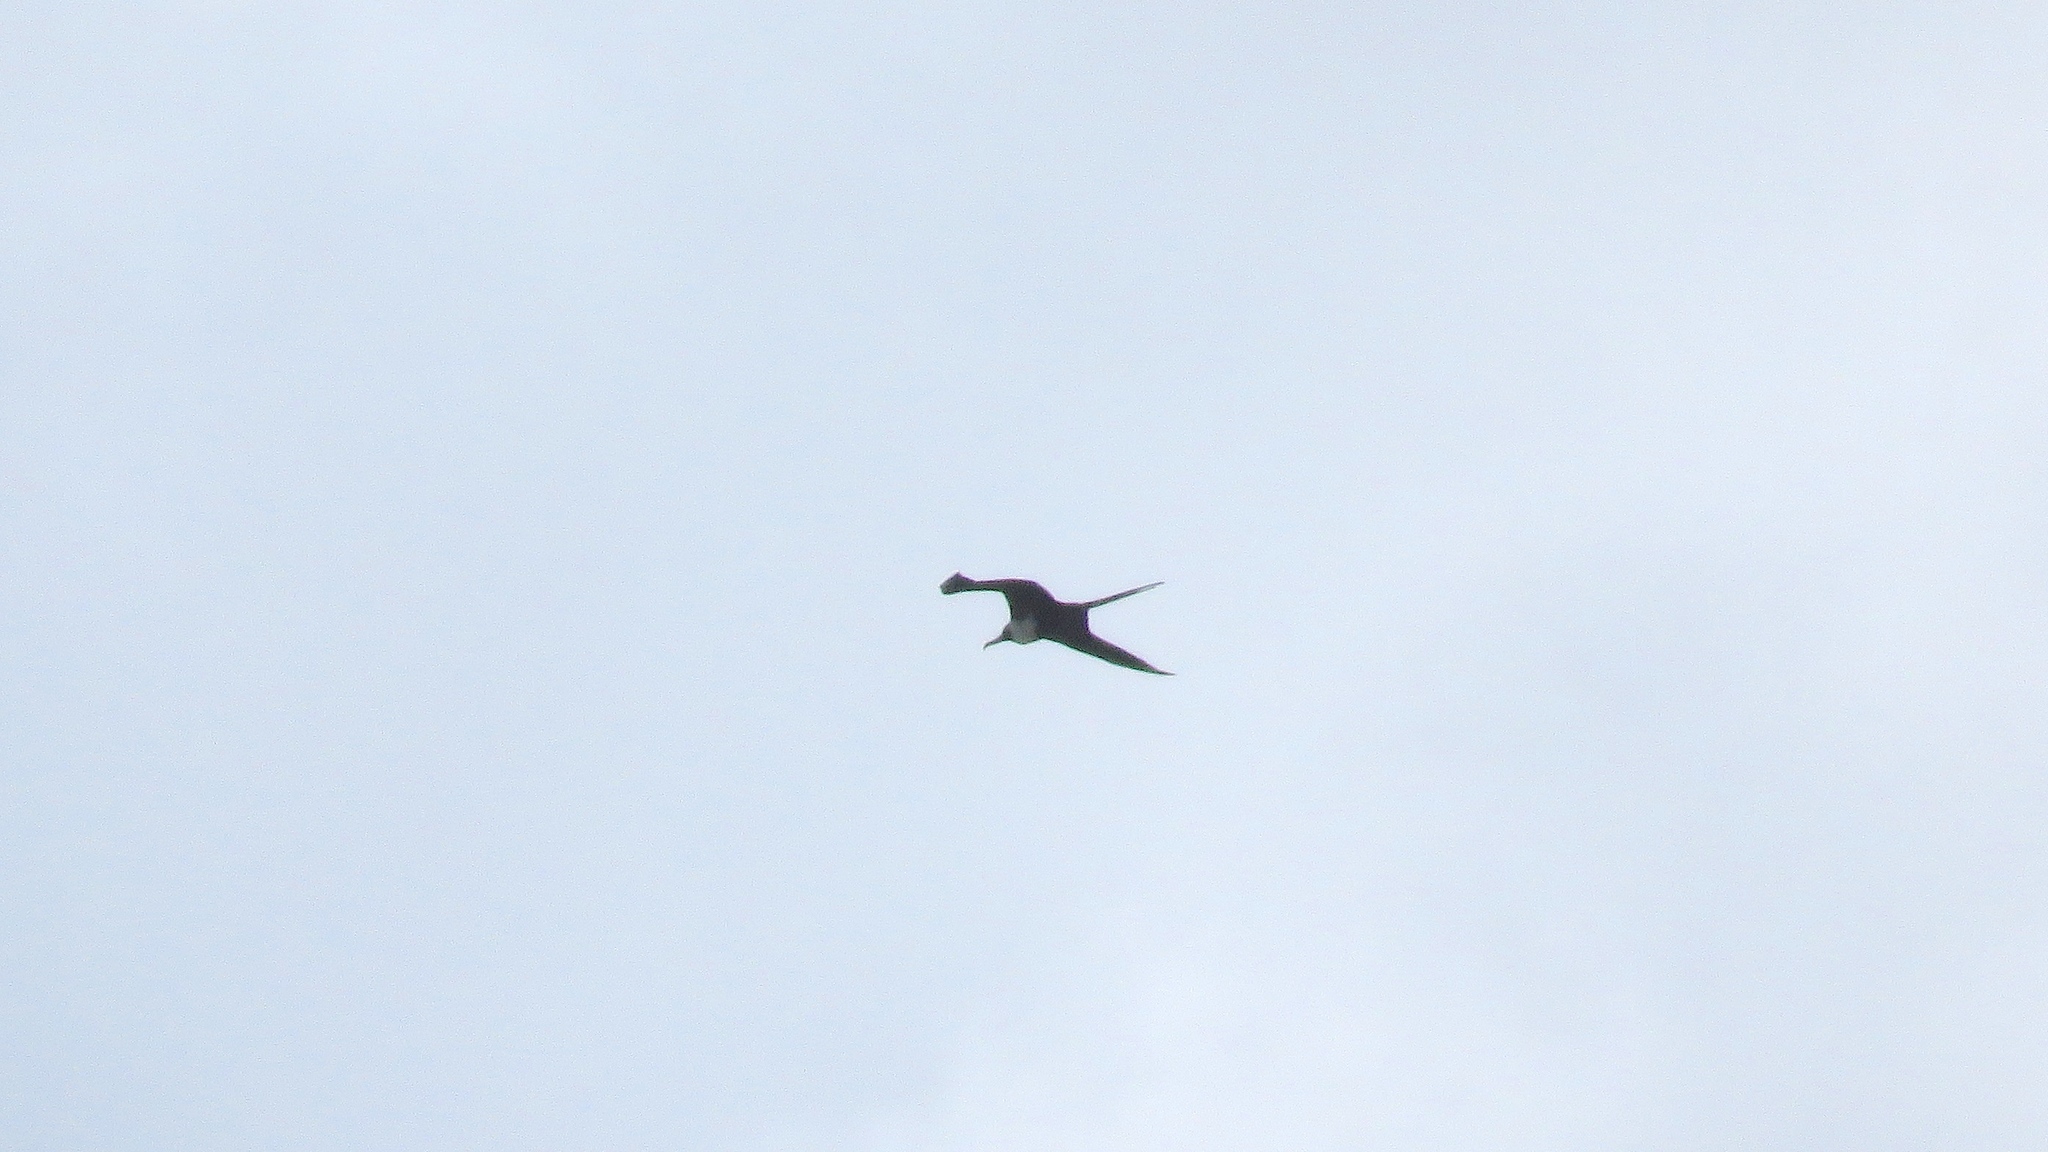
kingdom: Animalia
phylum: Chordata
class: Aves
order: Suliformes
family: Fregatidae
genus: Fregata
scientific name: Fregata magnificens
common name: Magnificent frigatebird
